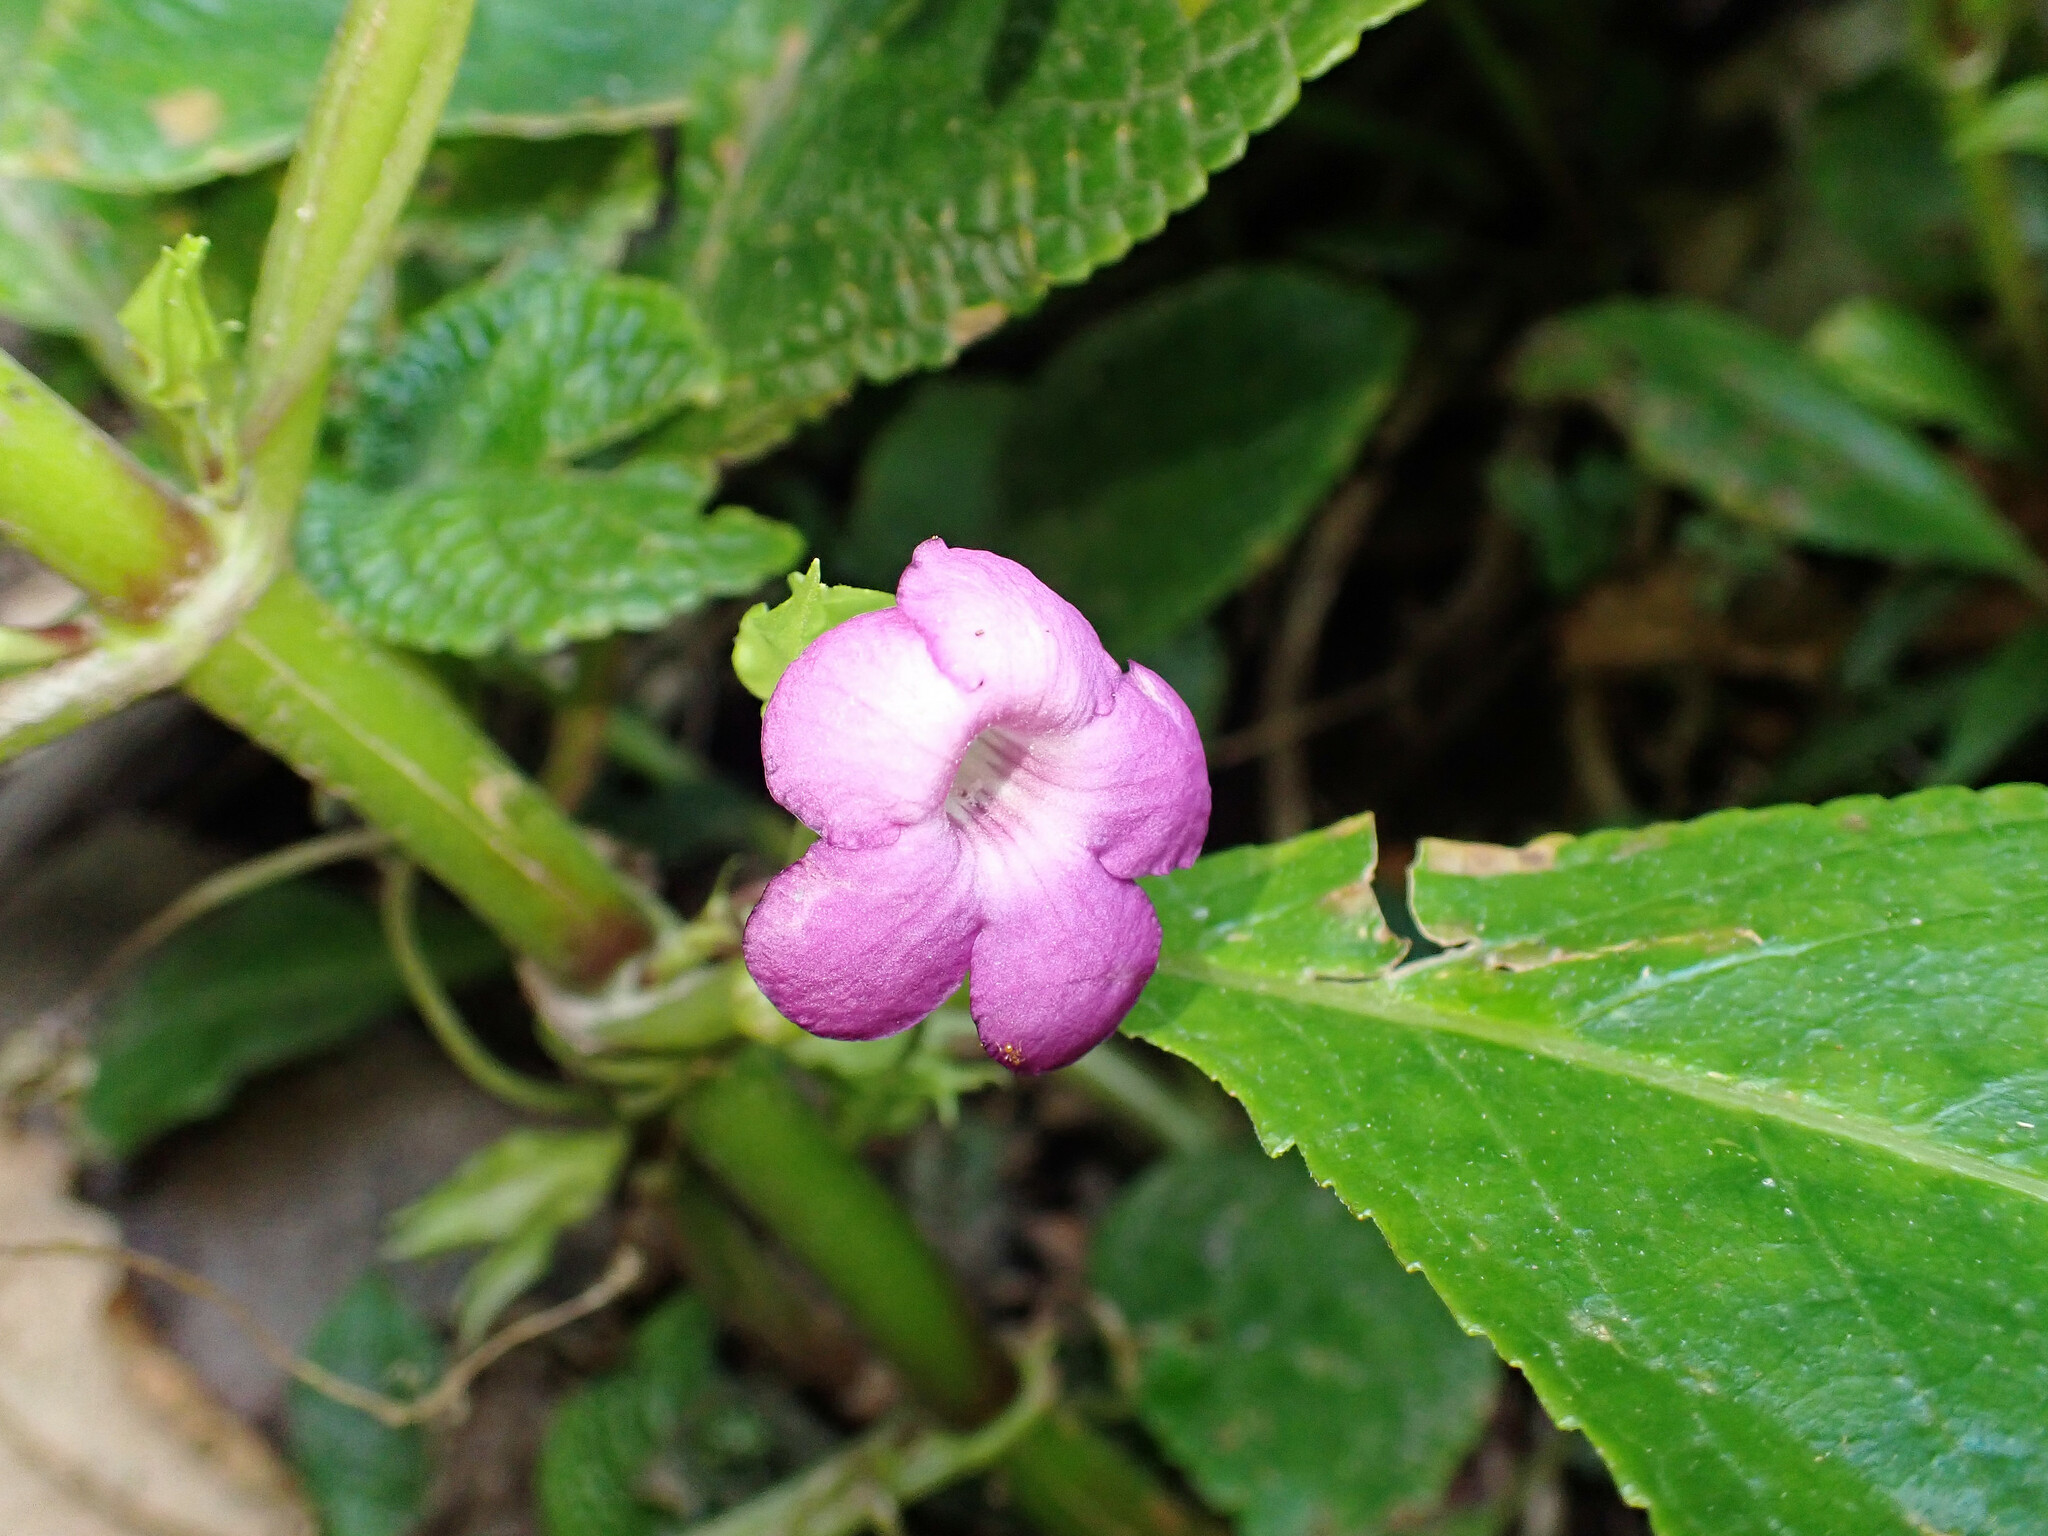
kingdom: Plantae
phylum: Tracheophyta
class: Magnoliopsida
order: Lamiales
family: Gesneriaceae
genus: Chrysothemis
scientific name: Chrysothemis melittifolia
